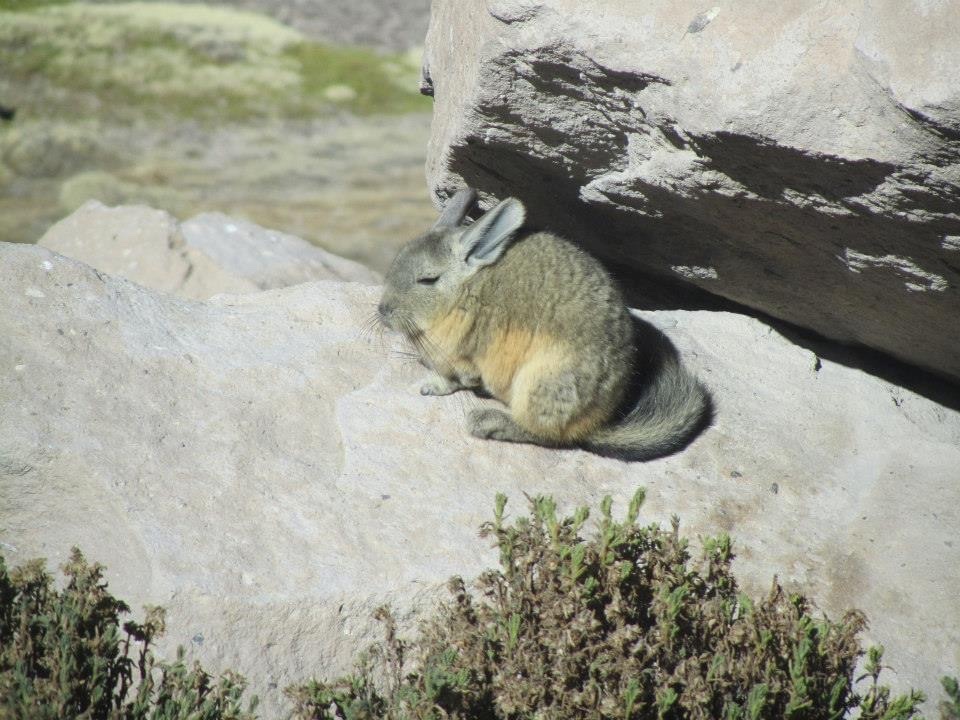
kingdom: Animalia
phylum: Chordata
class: Mammalia
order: Rodentia
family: Chinchillidae
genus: Lagidium
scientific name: Lagidium viscacia
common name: Southern viscacha
